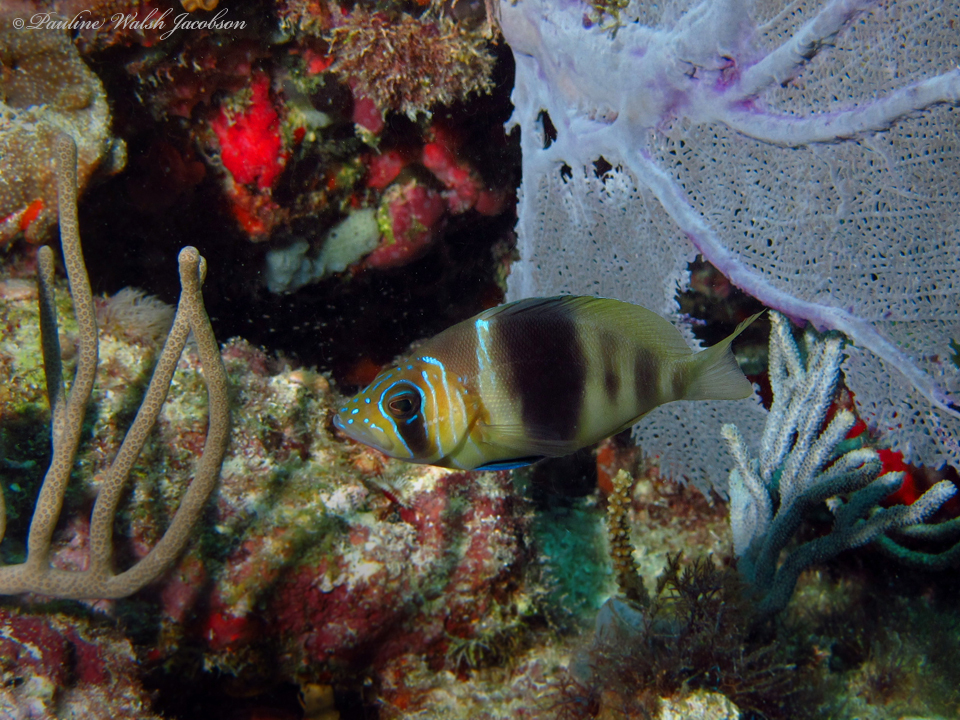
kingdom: Animalia
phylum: Chordata
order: Perciformes
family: Serranidae
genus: Hypoplectrus
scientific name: Hypoplectrus puella
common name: Barred hamlet
